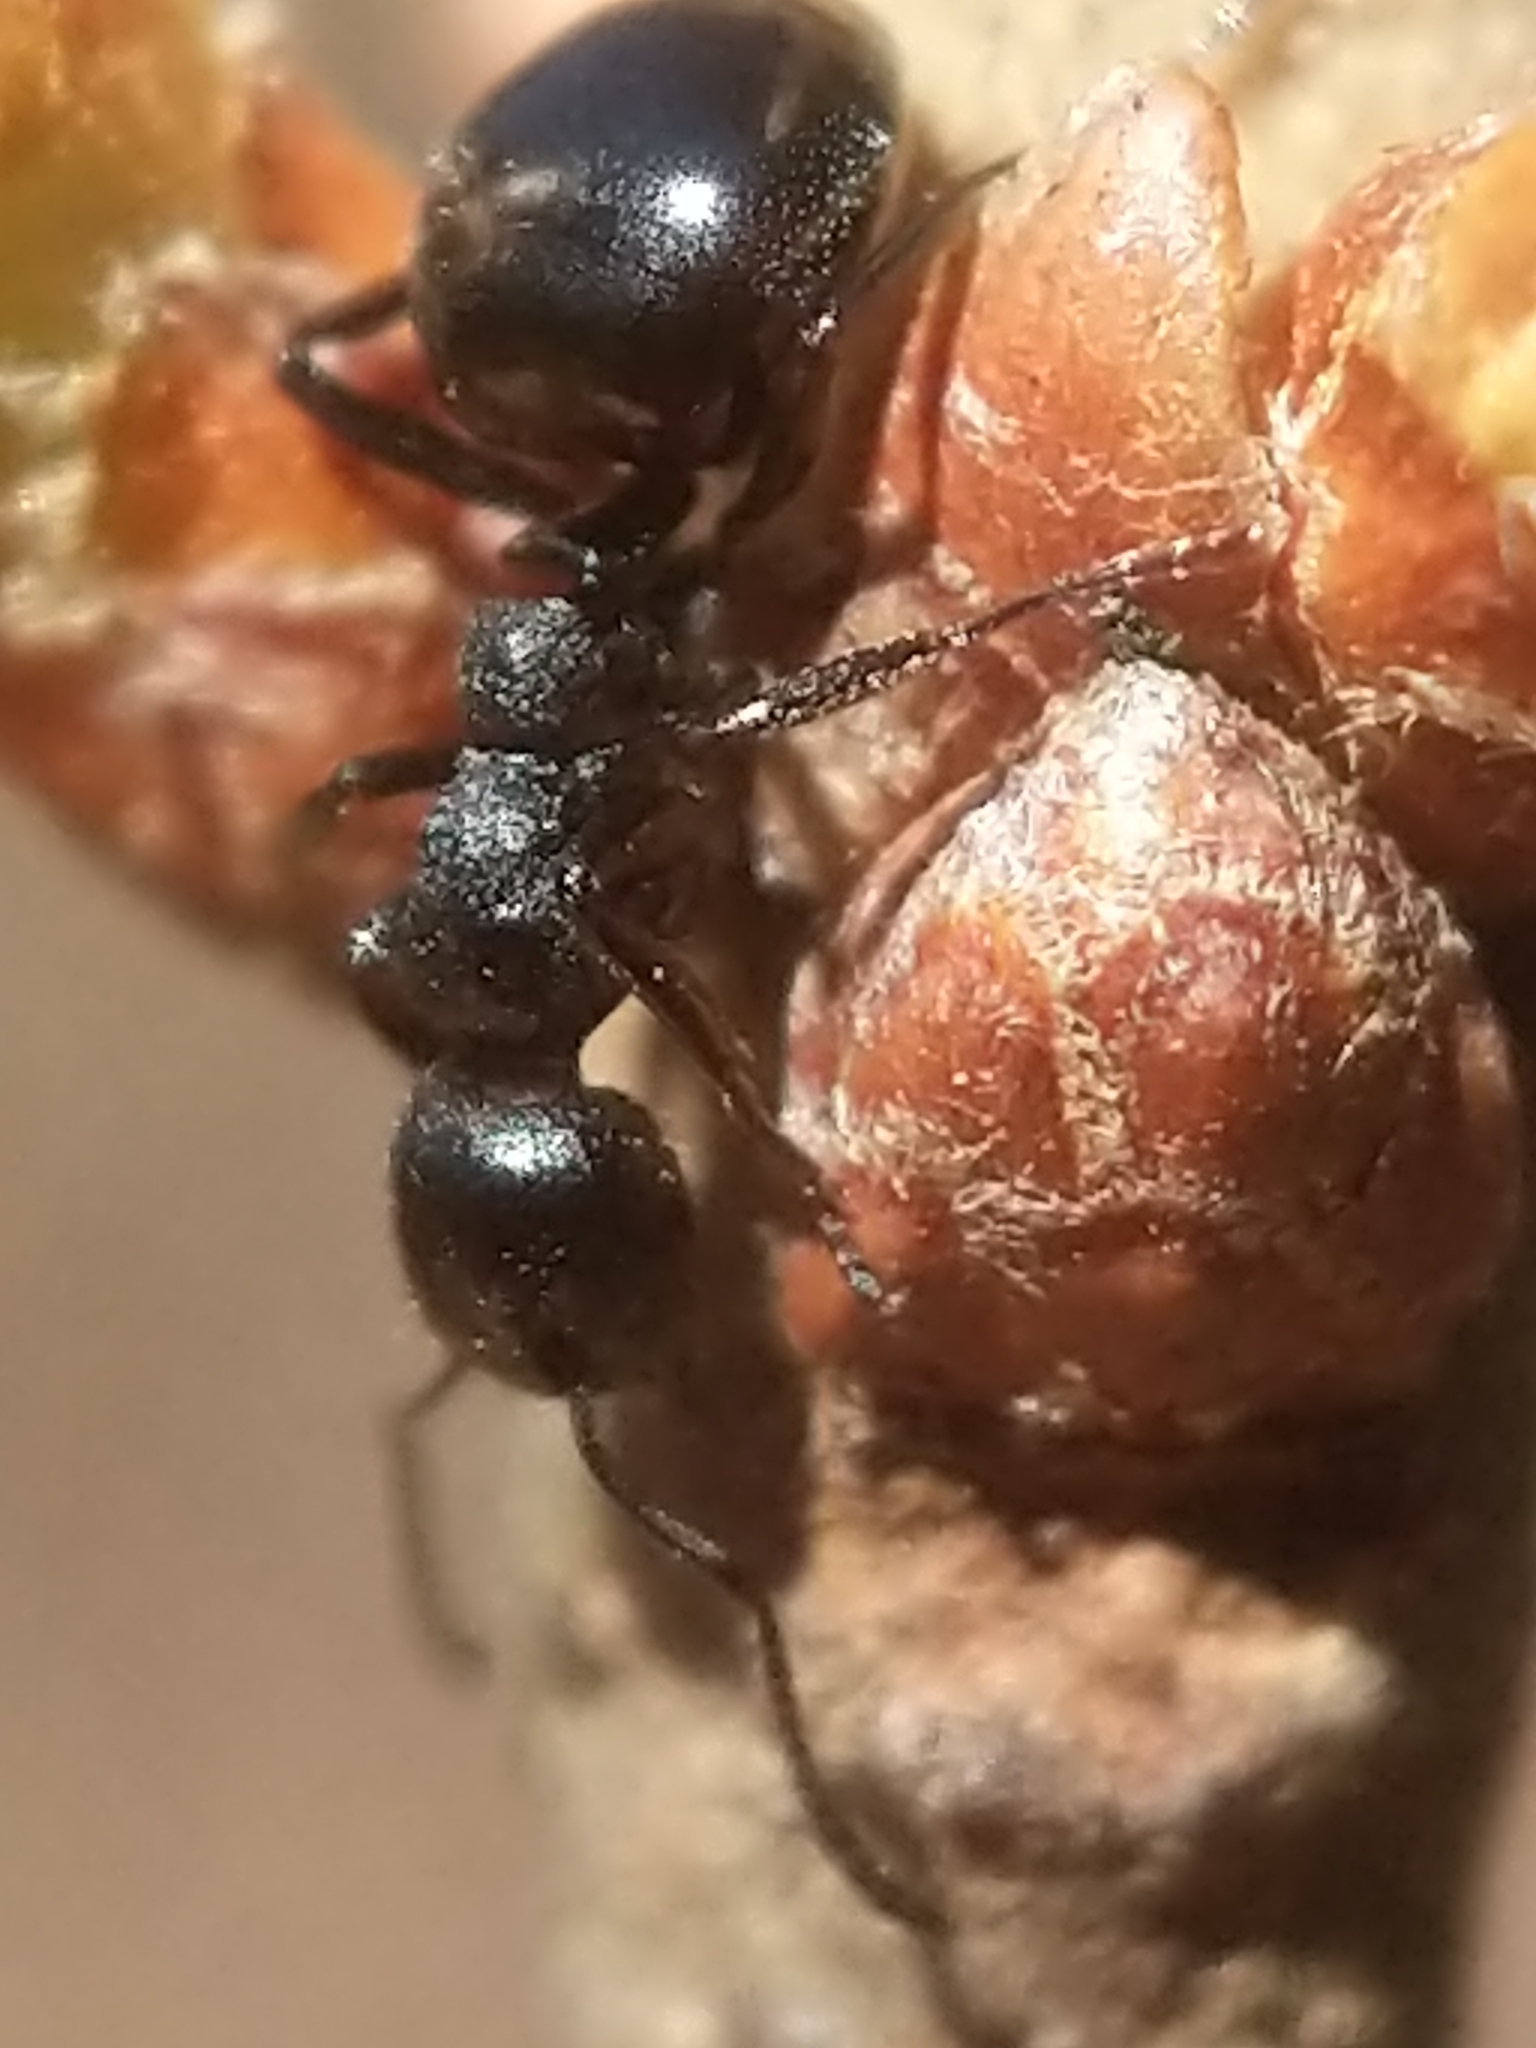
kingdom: Animalia
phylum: Arthropoda
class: Insecta
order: Hymenoptera
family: Formicidae
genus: Dolichoderus
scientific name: Dolichoderus taschenbergi
